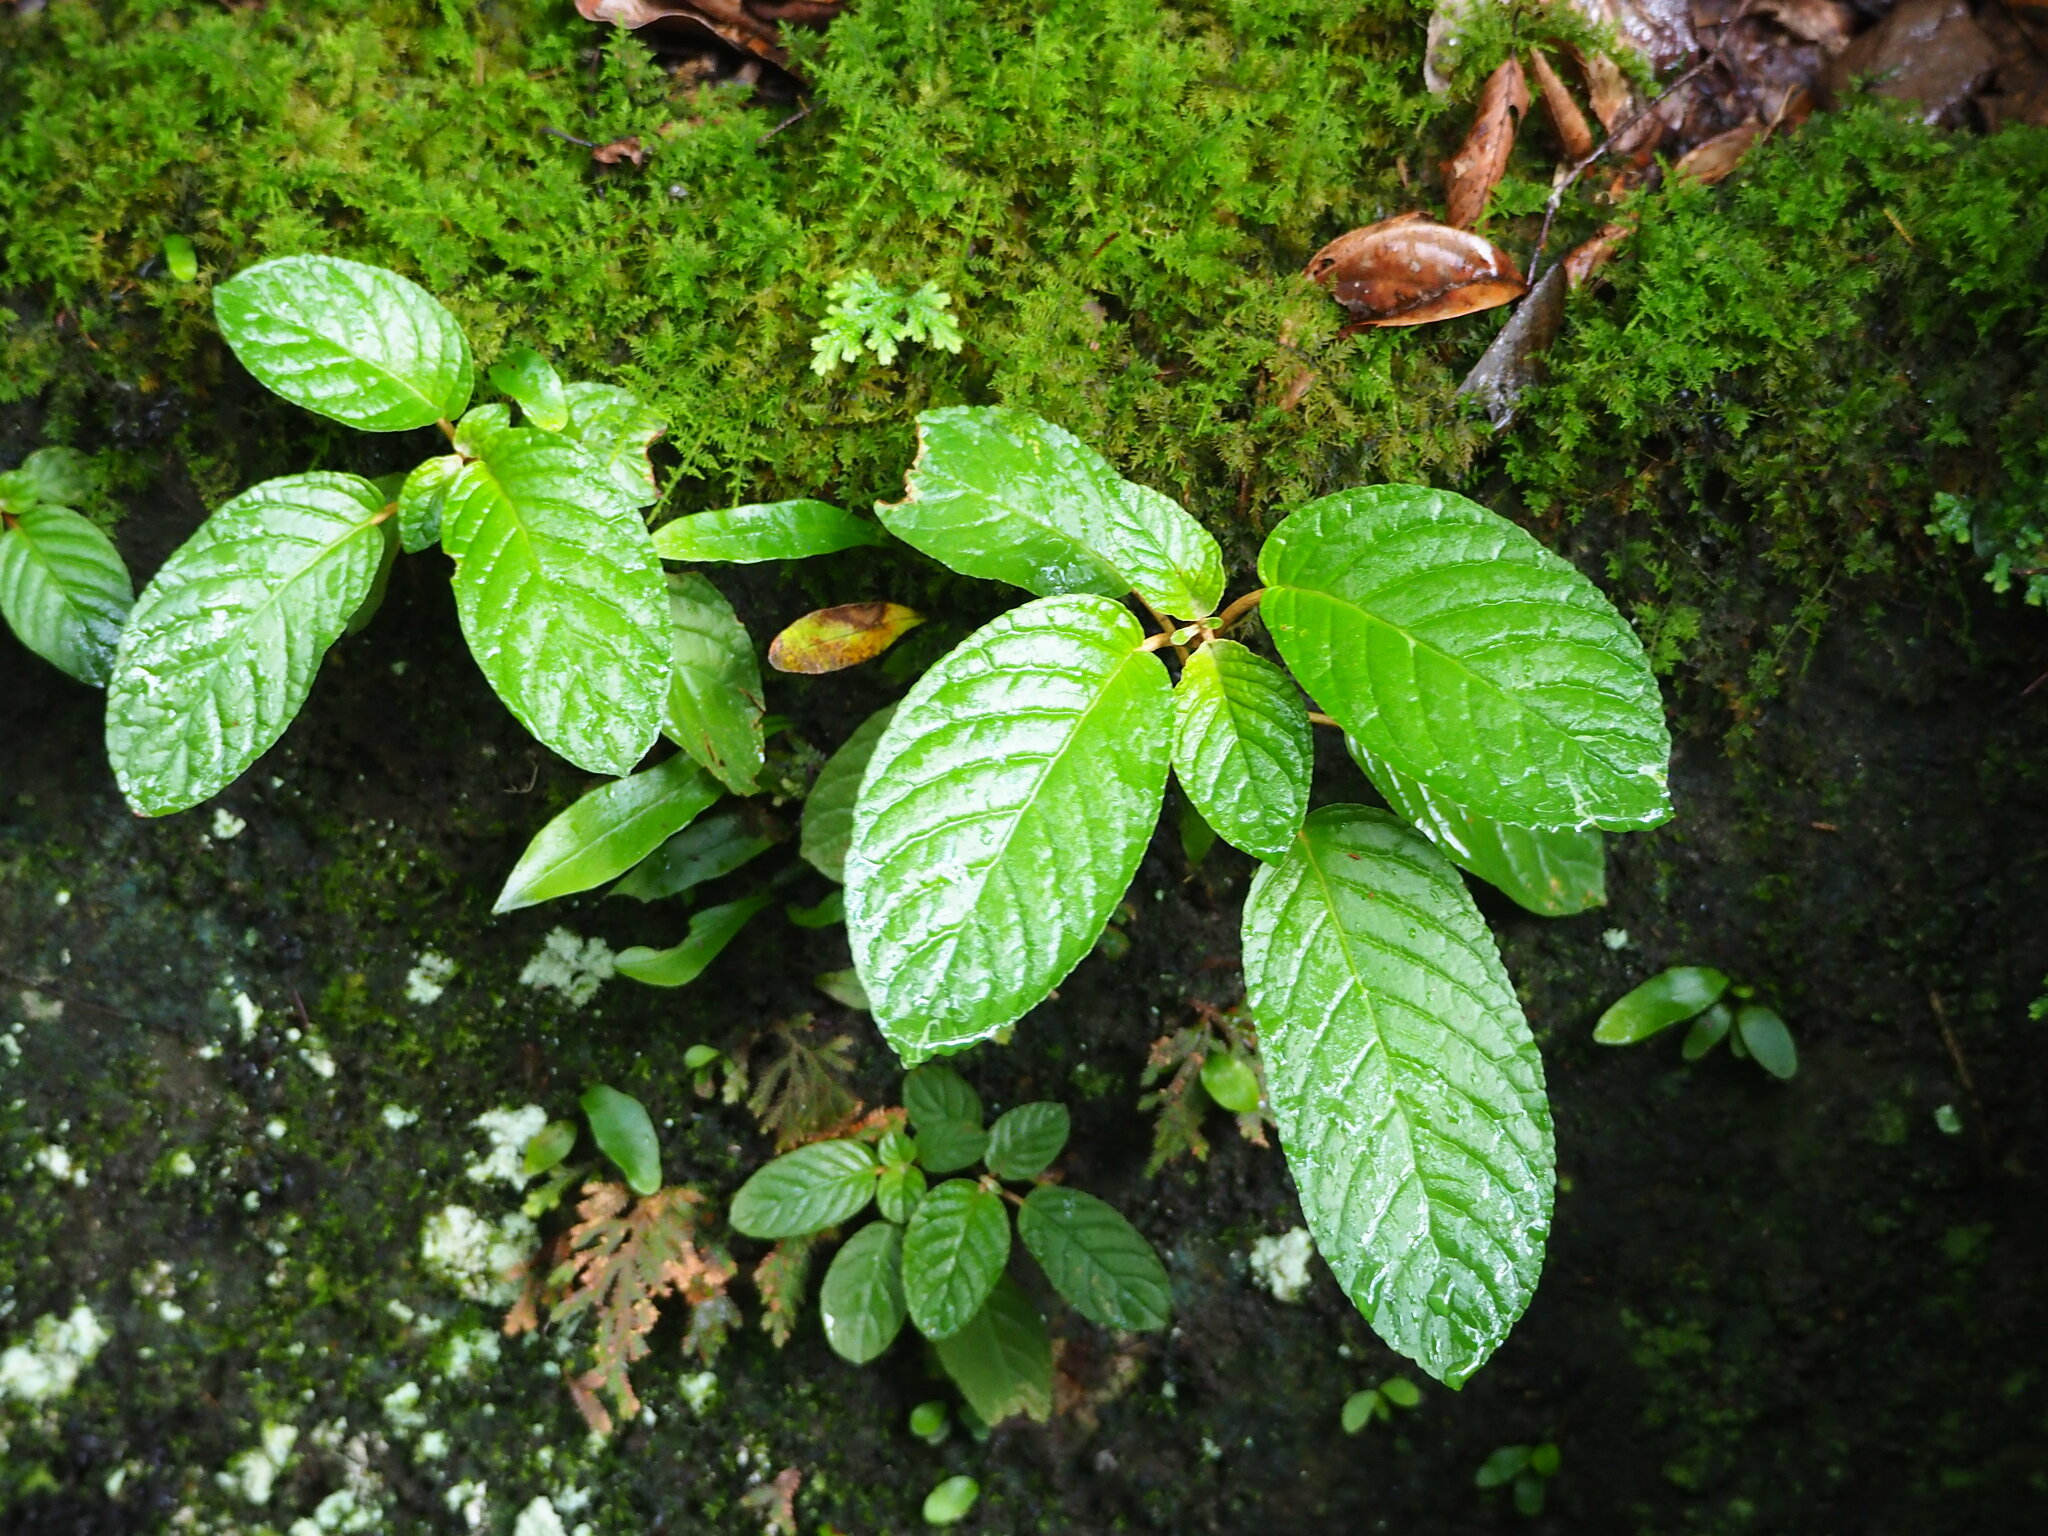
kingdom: Plantae
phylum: Tracheophyta
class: Magnoliopsida
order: Lamiales
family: Gesneriaceae
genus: Paraboea
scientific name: Paraboea swinhoei
